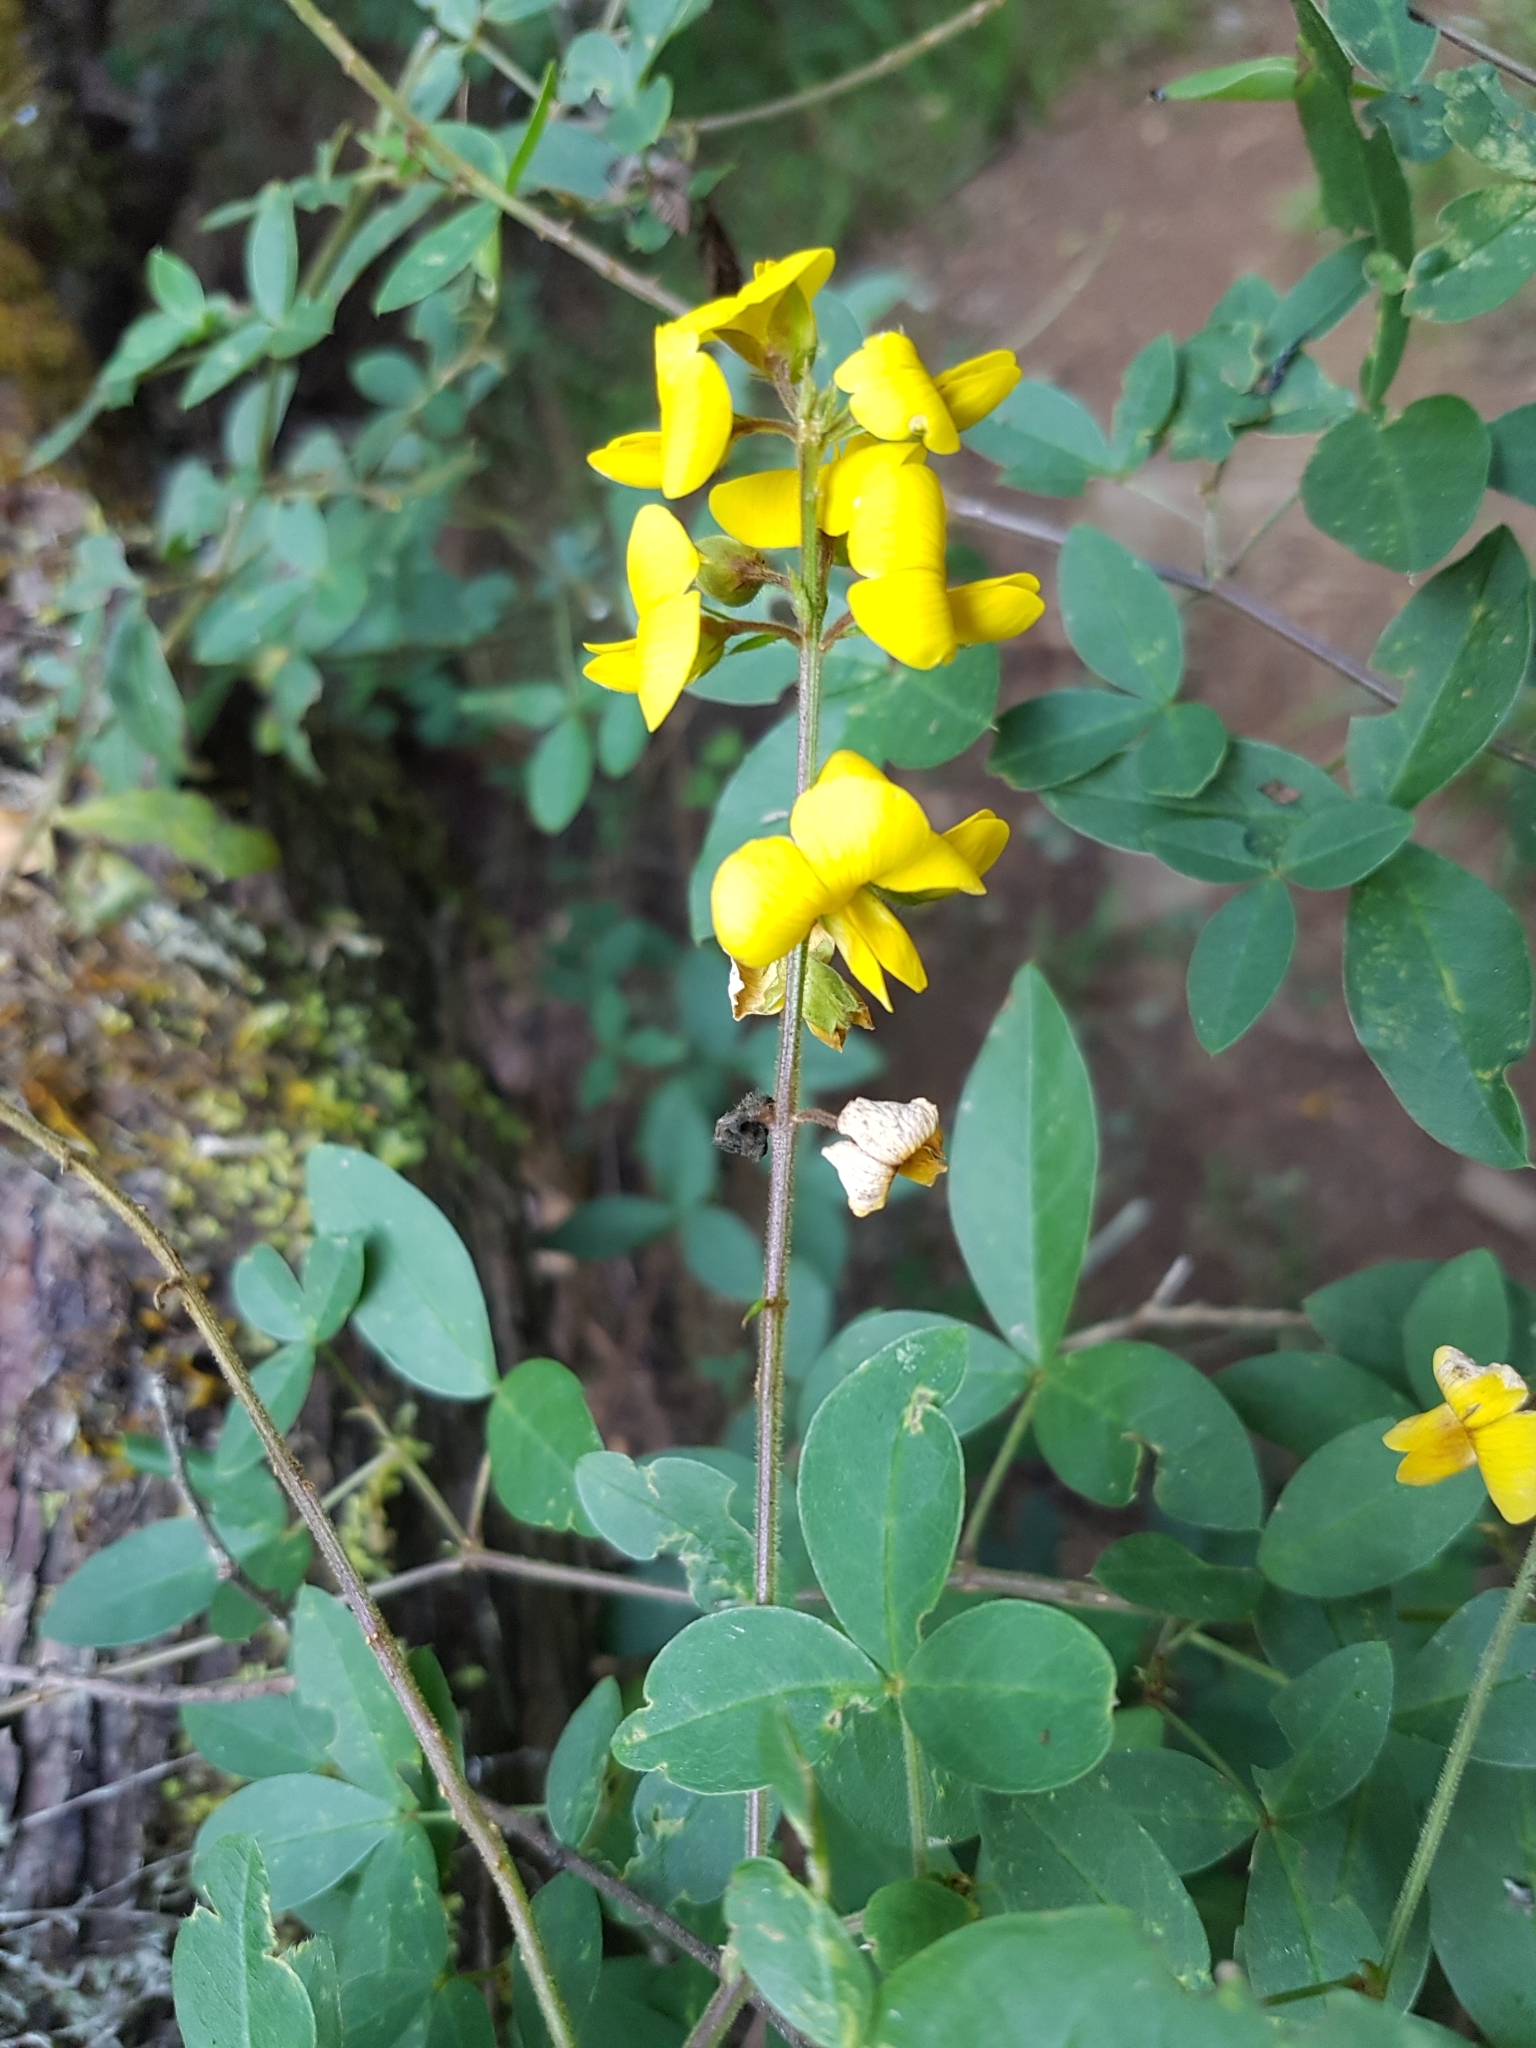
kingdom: Plantae
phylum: Tracheophyta
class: Magnoliopsida
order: Fabales
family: Fabaceae
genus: Argyrolobium
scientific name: Argyrolobium tomentosum
